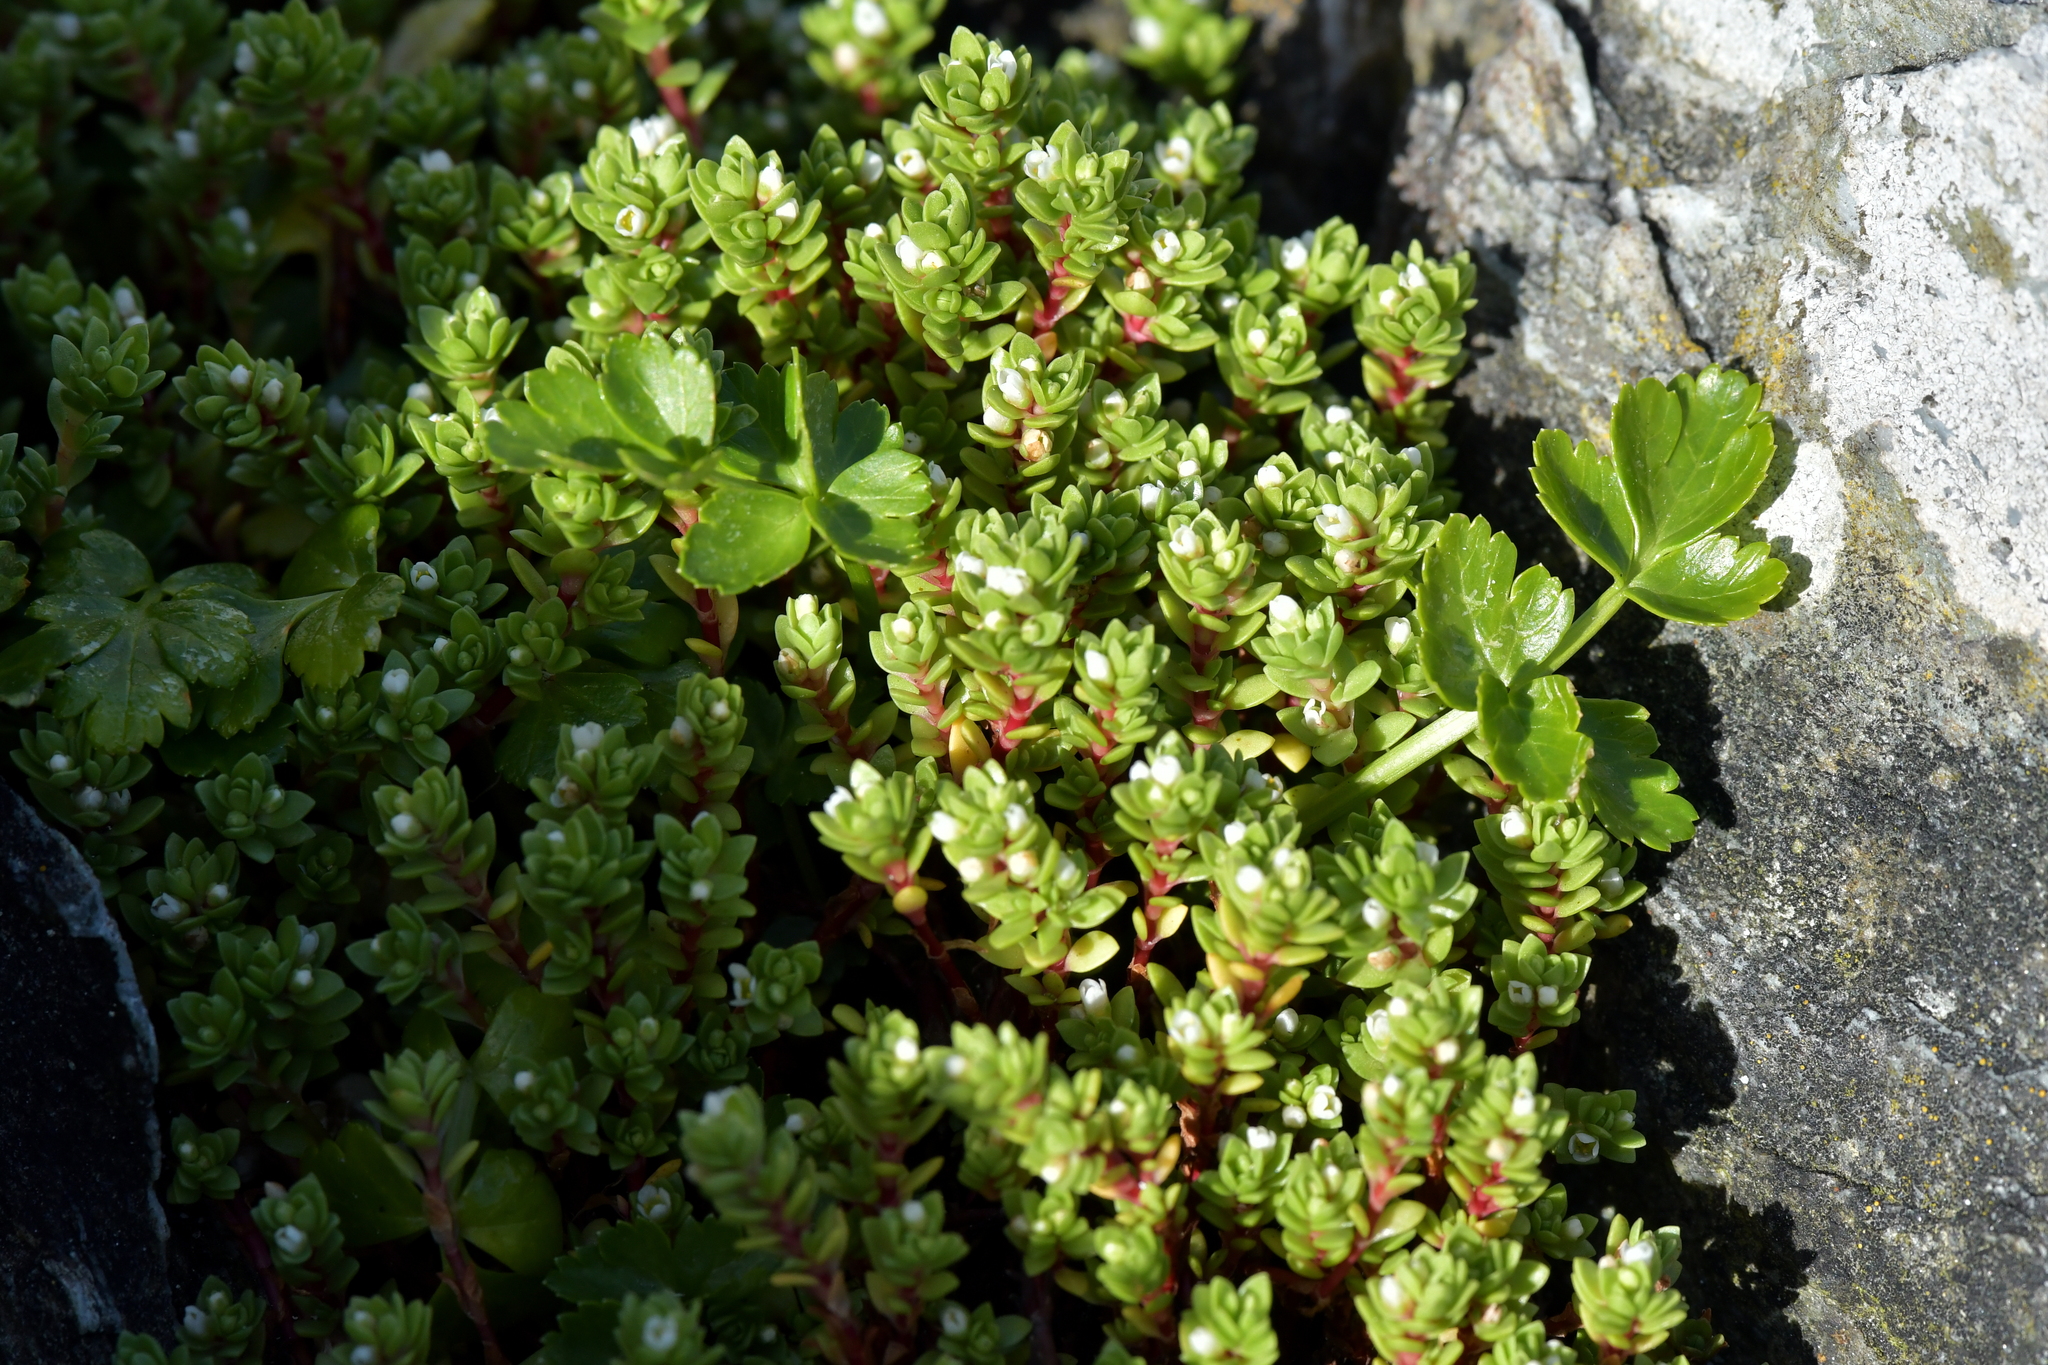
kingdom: Plantae
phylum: Tracheophyta
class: Magnoliopsida
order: Saxifragales
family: Crassulaceae
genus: Crassula
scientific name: Crassula moschata
